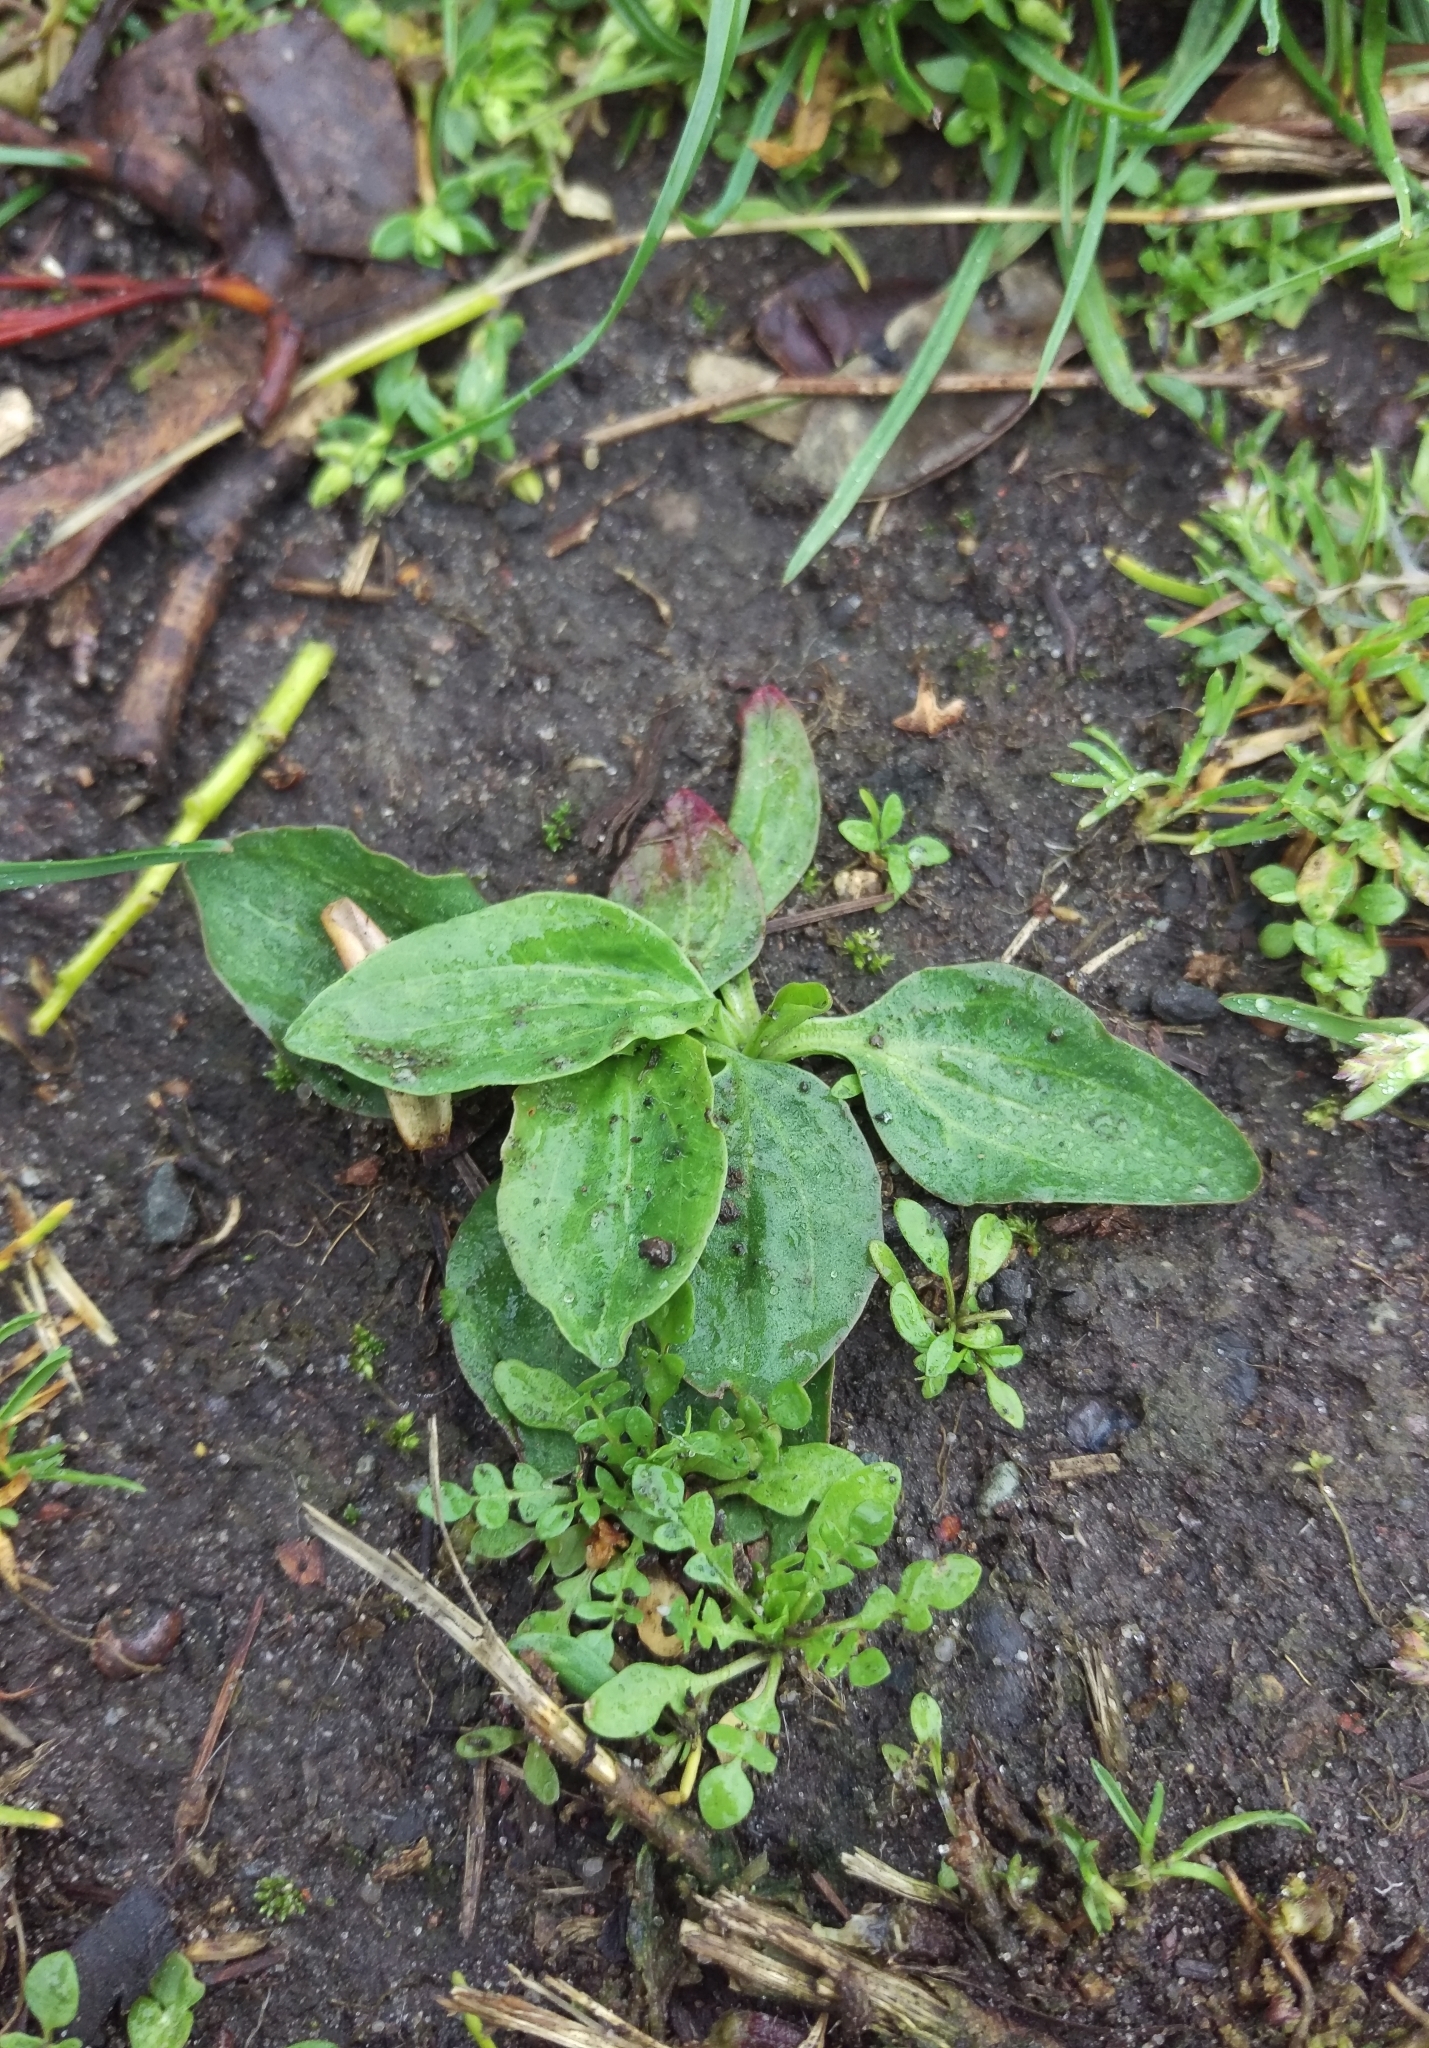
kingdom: Plantae
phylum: Tracheophyta
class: Magnoliopsida
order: Lamiales
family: Plantaginaceae
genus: Plantago
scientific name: Plantago major
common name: Common plantain
